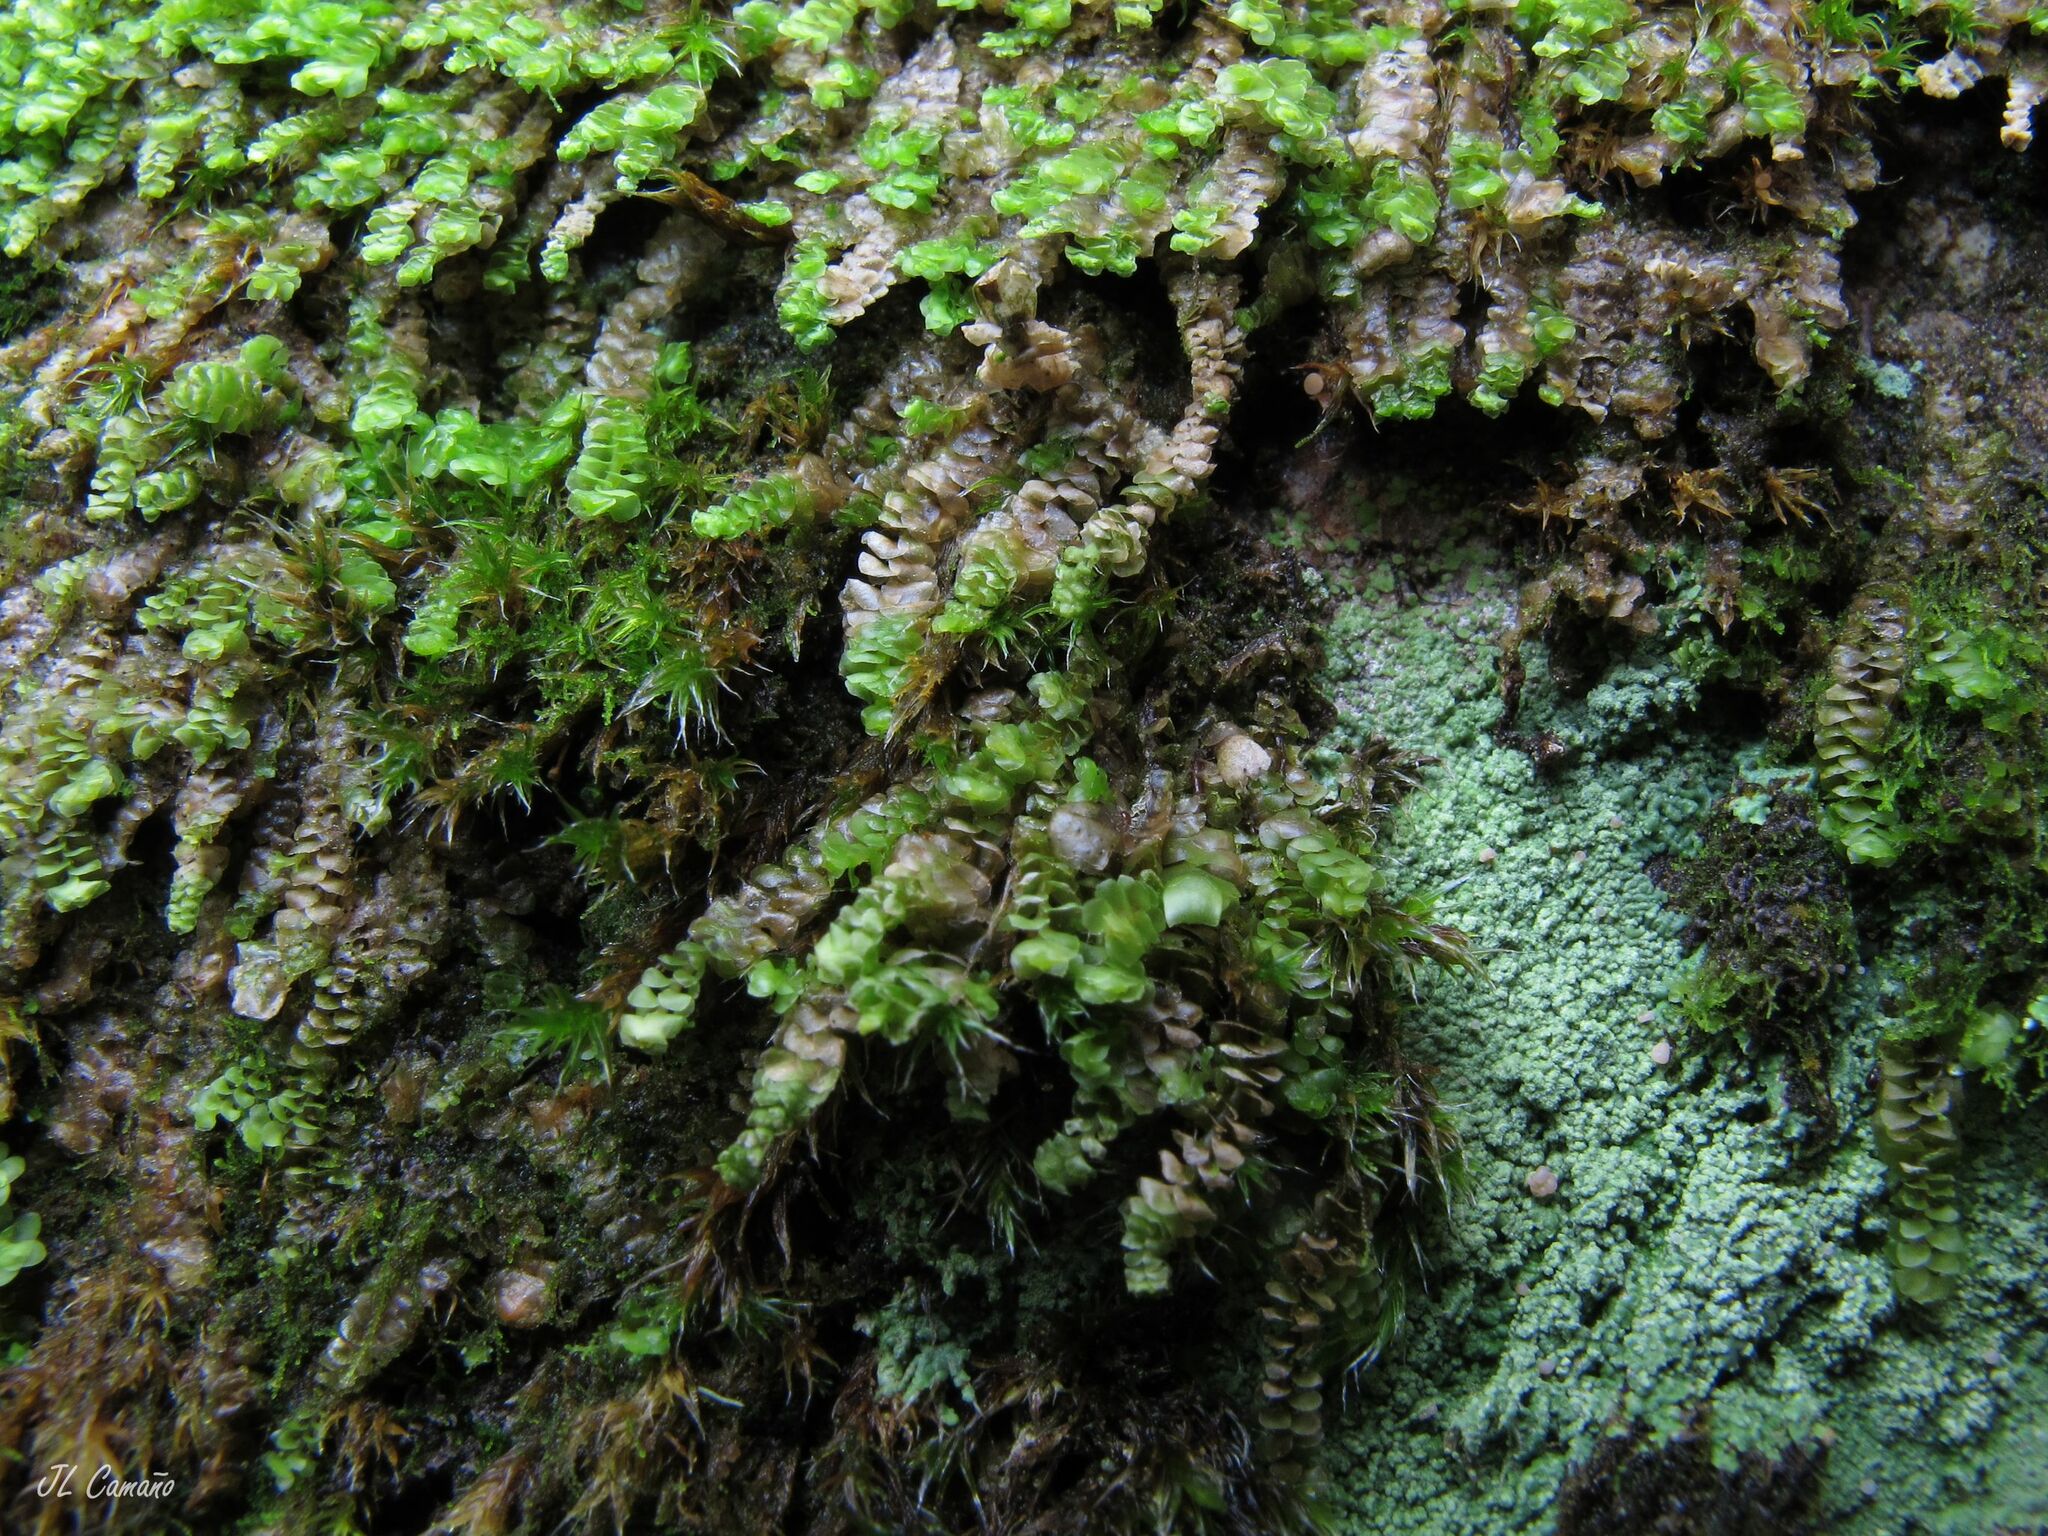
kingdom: Plantae
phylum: Marchantiophyta
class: Jungermanniopsida
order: Jungermanniales
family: Scapaniaceae
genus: Scapania
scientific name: Scapania compacta
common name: Thick-set earwort
